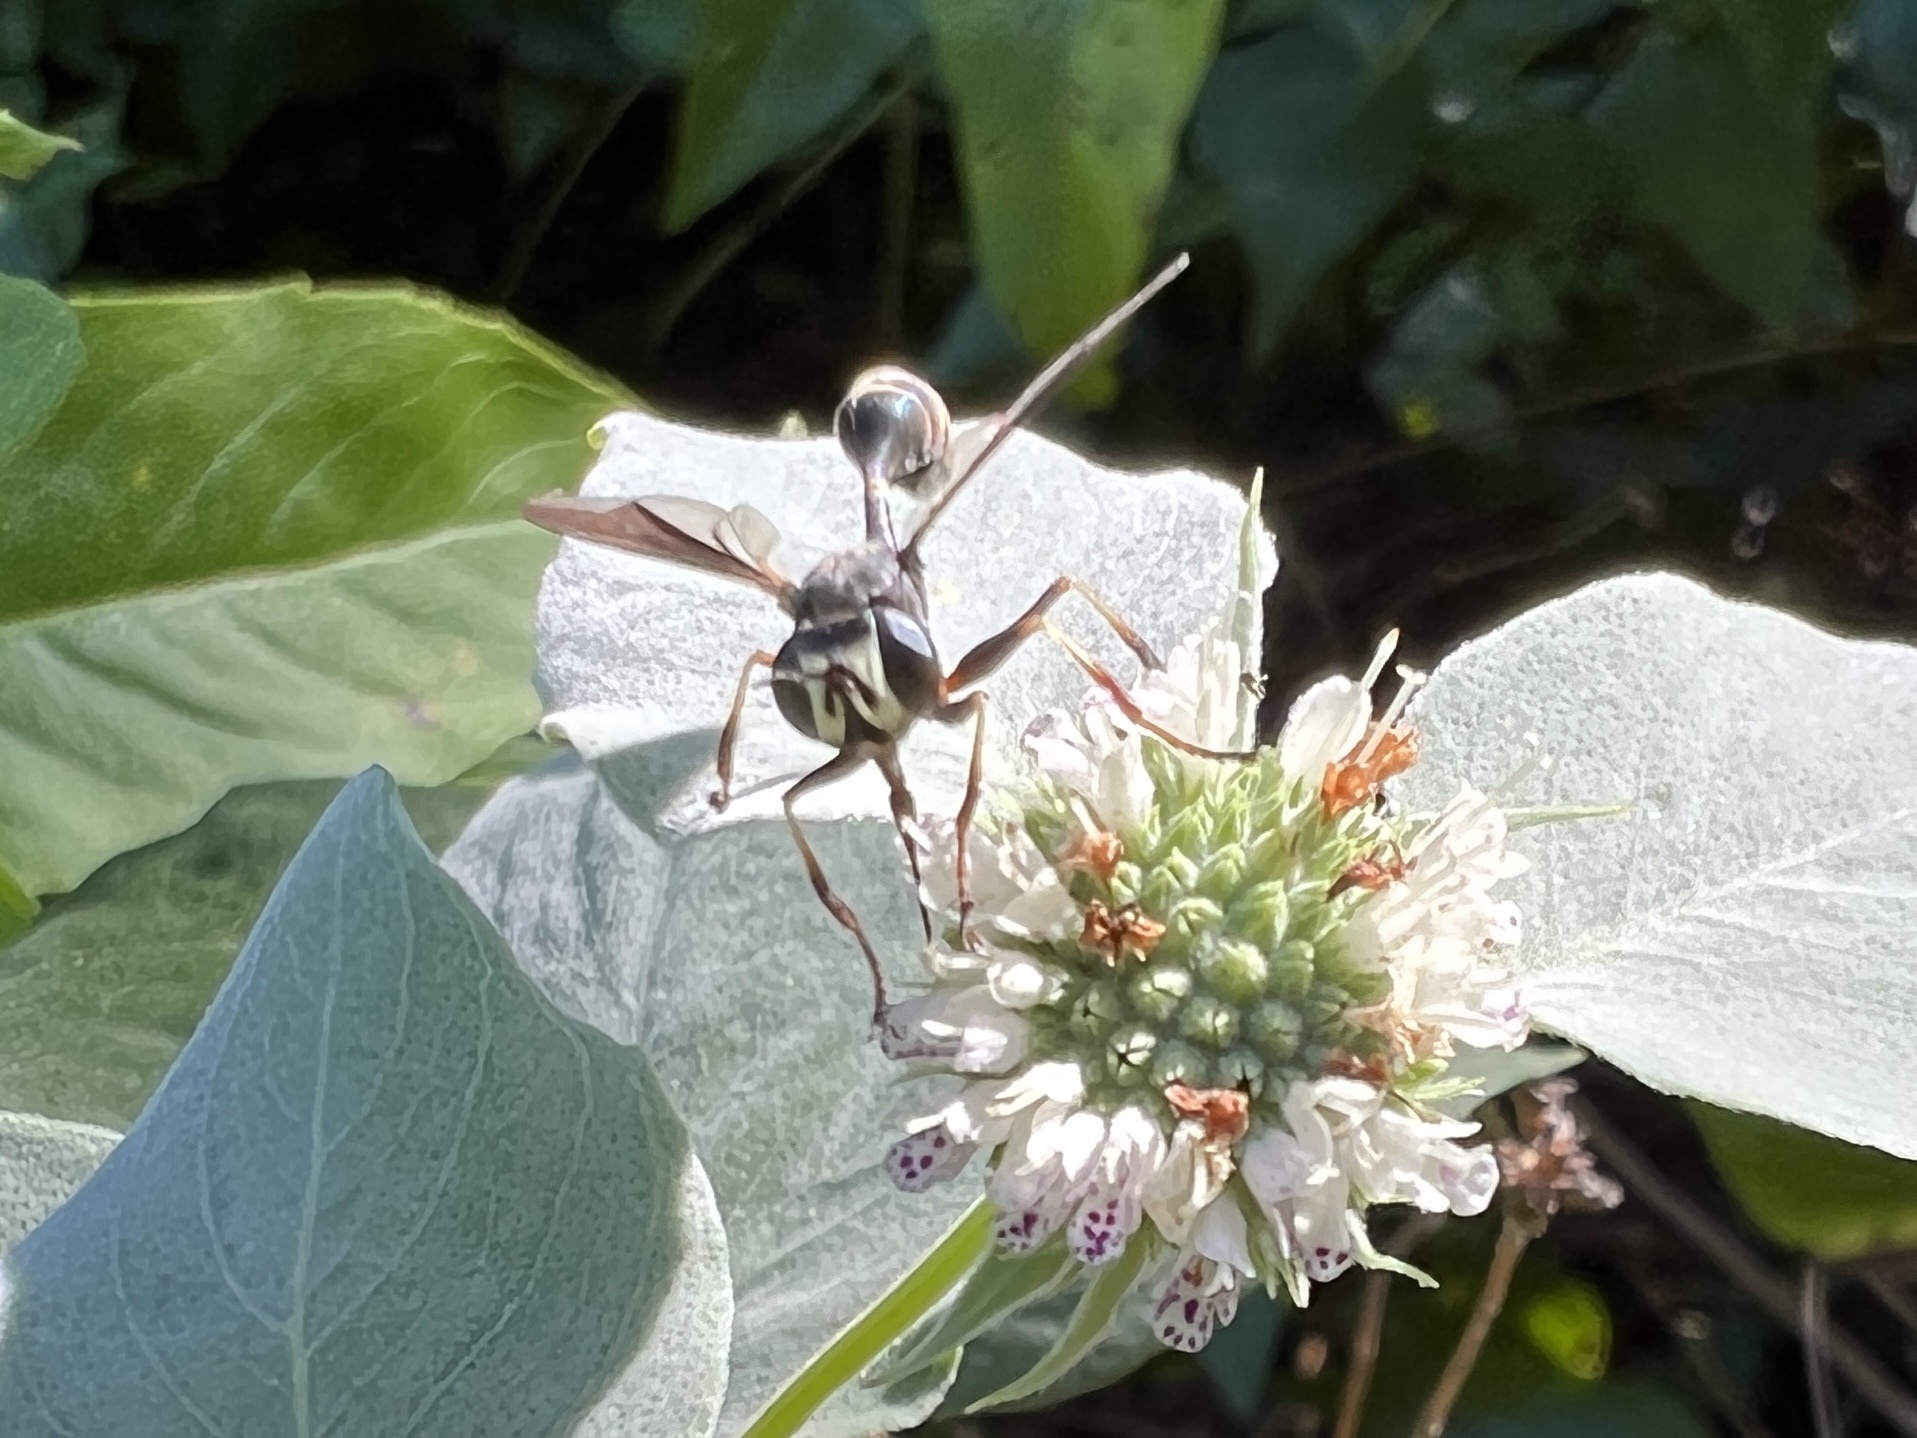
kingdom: Animalia
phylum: Arthropoda
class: Insecta
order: Diptera
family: Conopidae
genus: Physocephala
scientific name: Physocephala tibialis
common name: Common eastern physocephala
